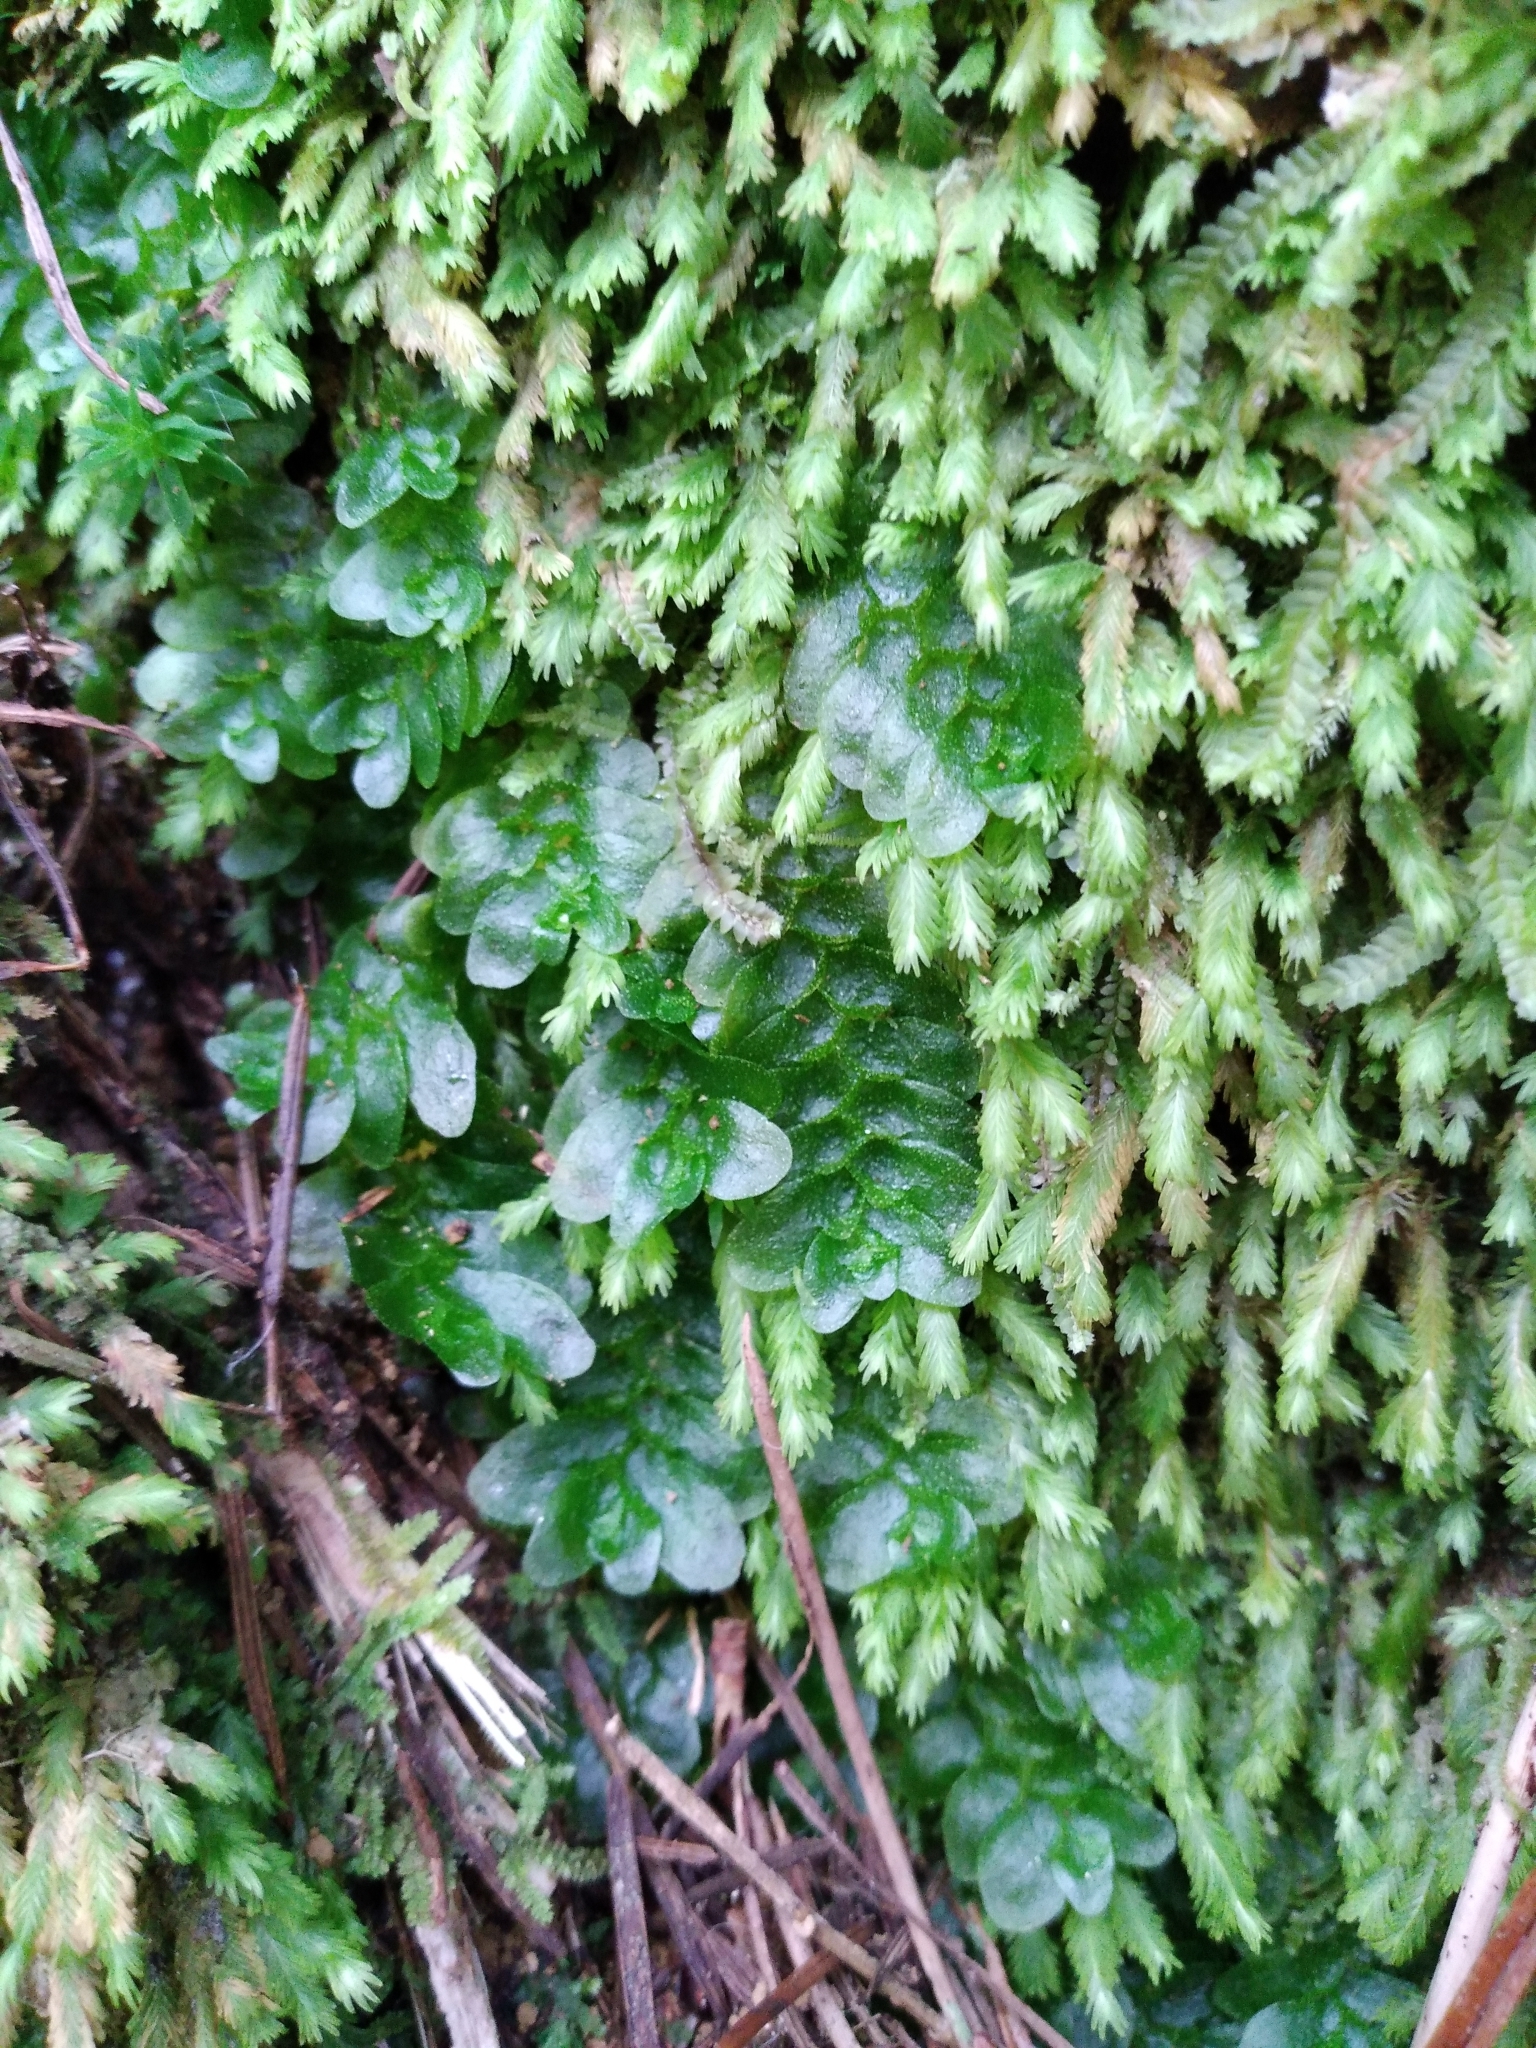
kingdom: Plantae
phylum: Marchantiophyta
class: Haplomitriopsida
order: Treubiales
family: Treubiaceae
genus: Treubia
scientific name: Treubia lacunosa
